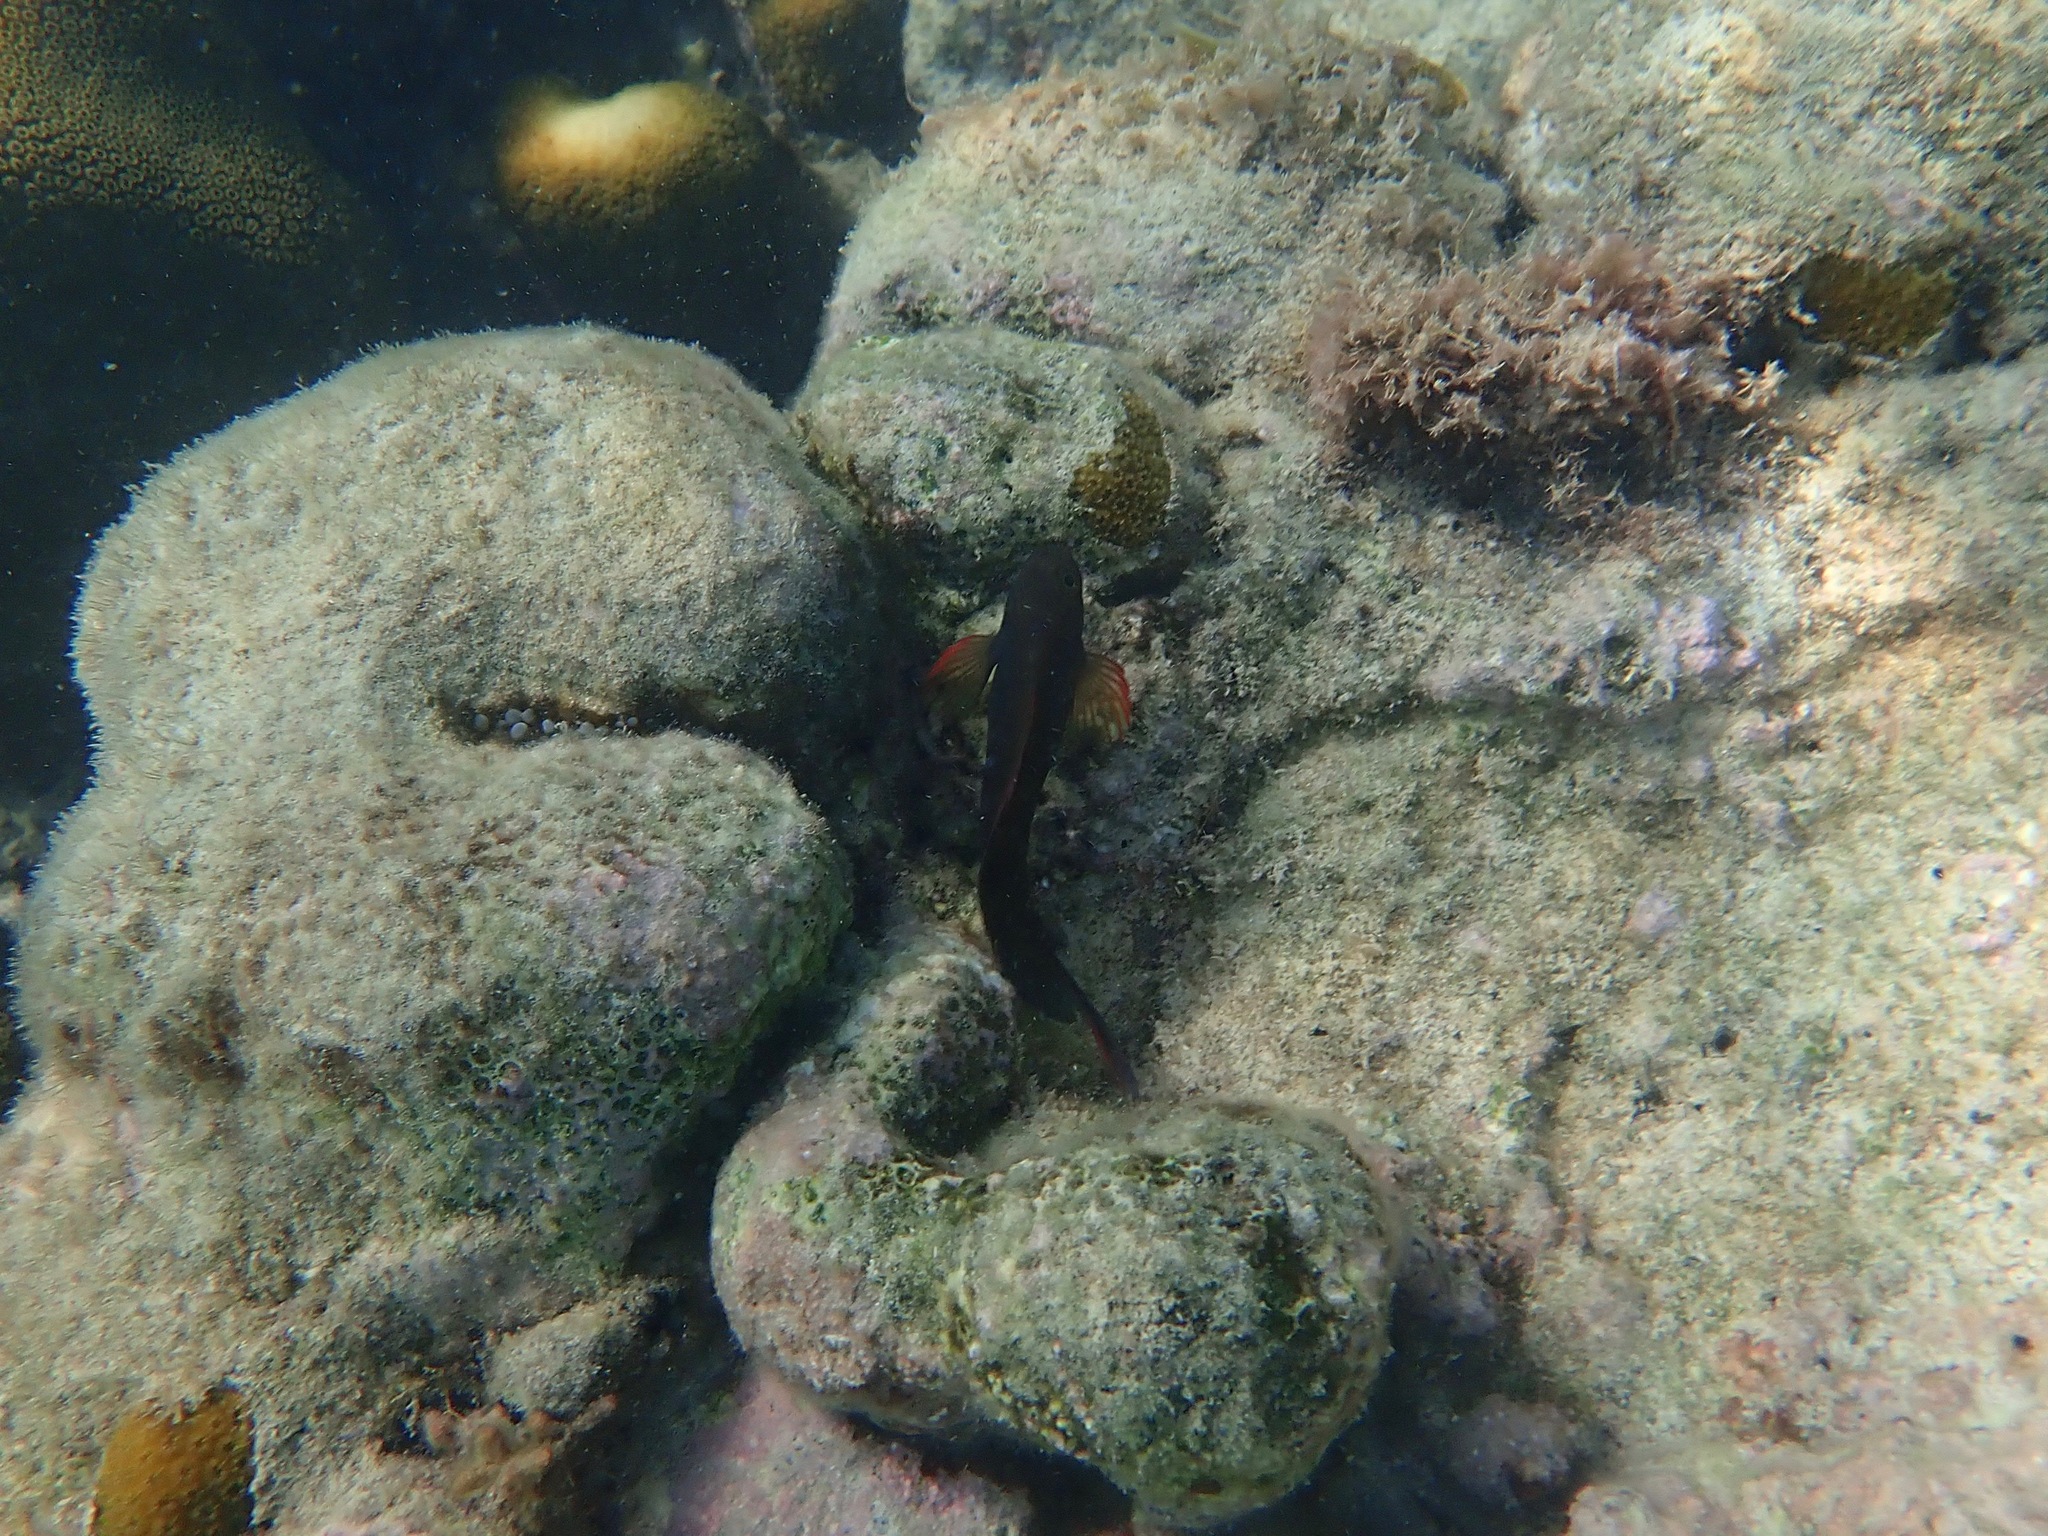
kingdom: Animalia
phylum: Chordata
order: Perciformes
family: Blenniidae
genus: Ophioblennius
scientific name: Ophioblennius macclurei
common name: Redlip blenny
